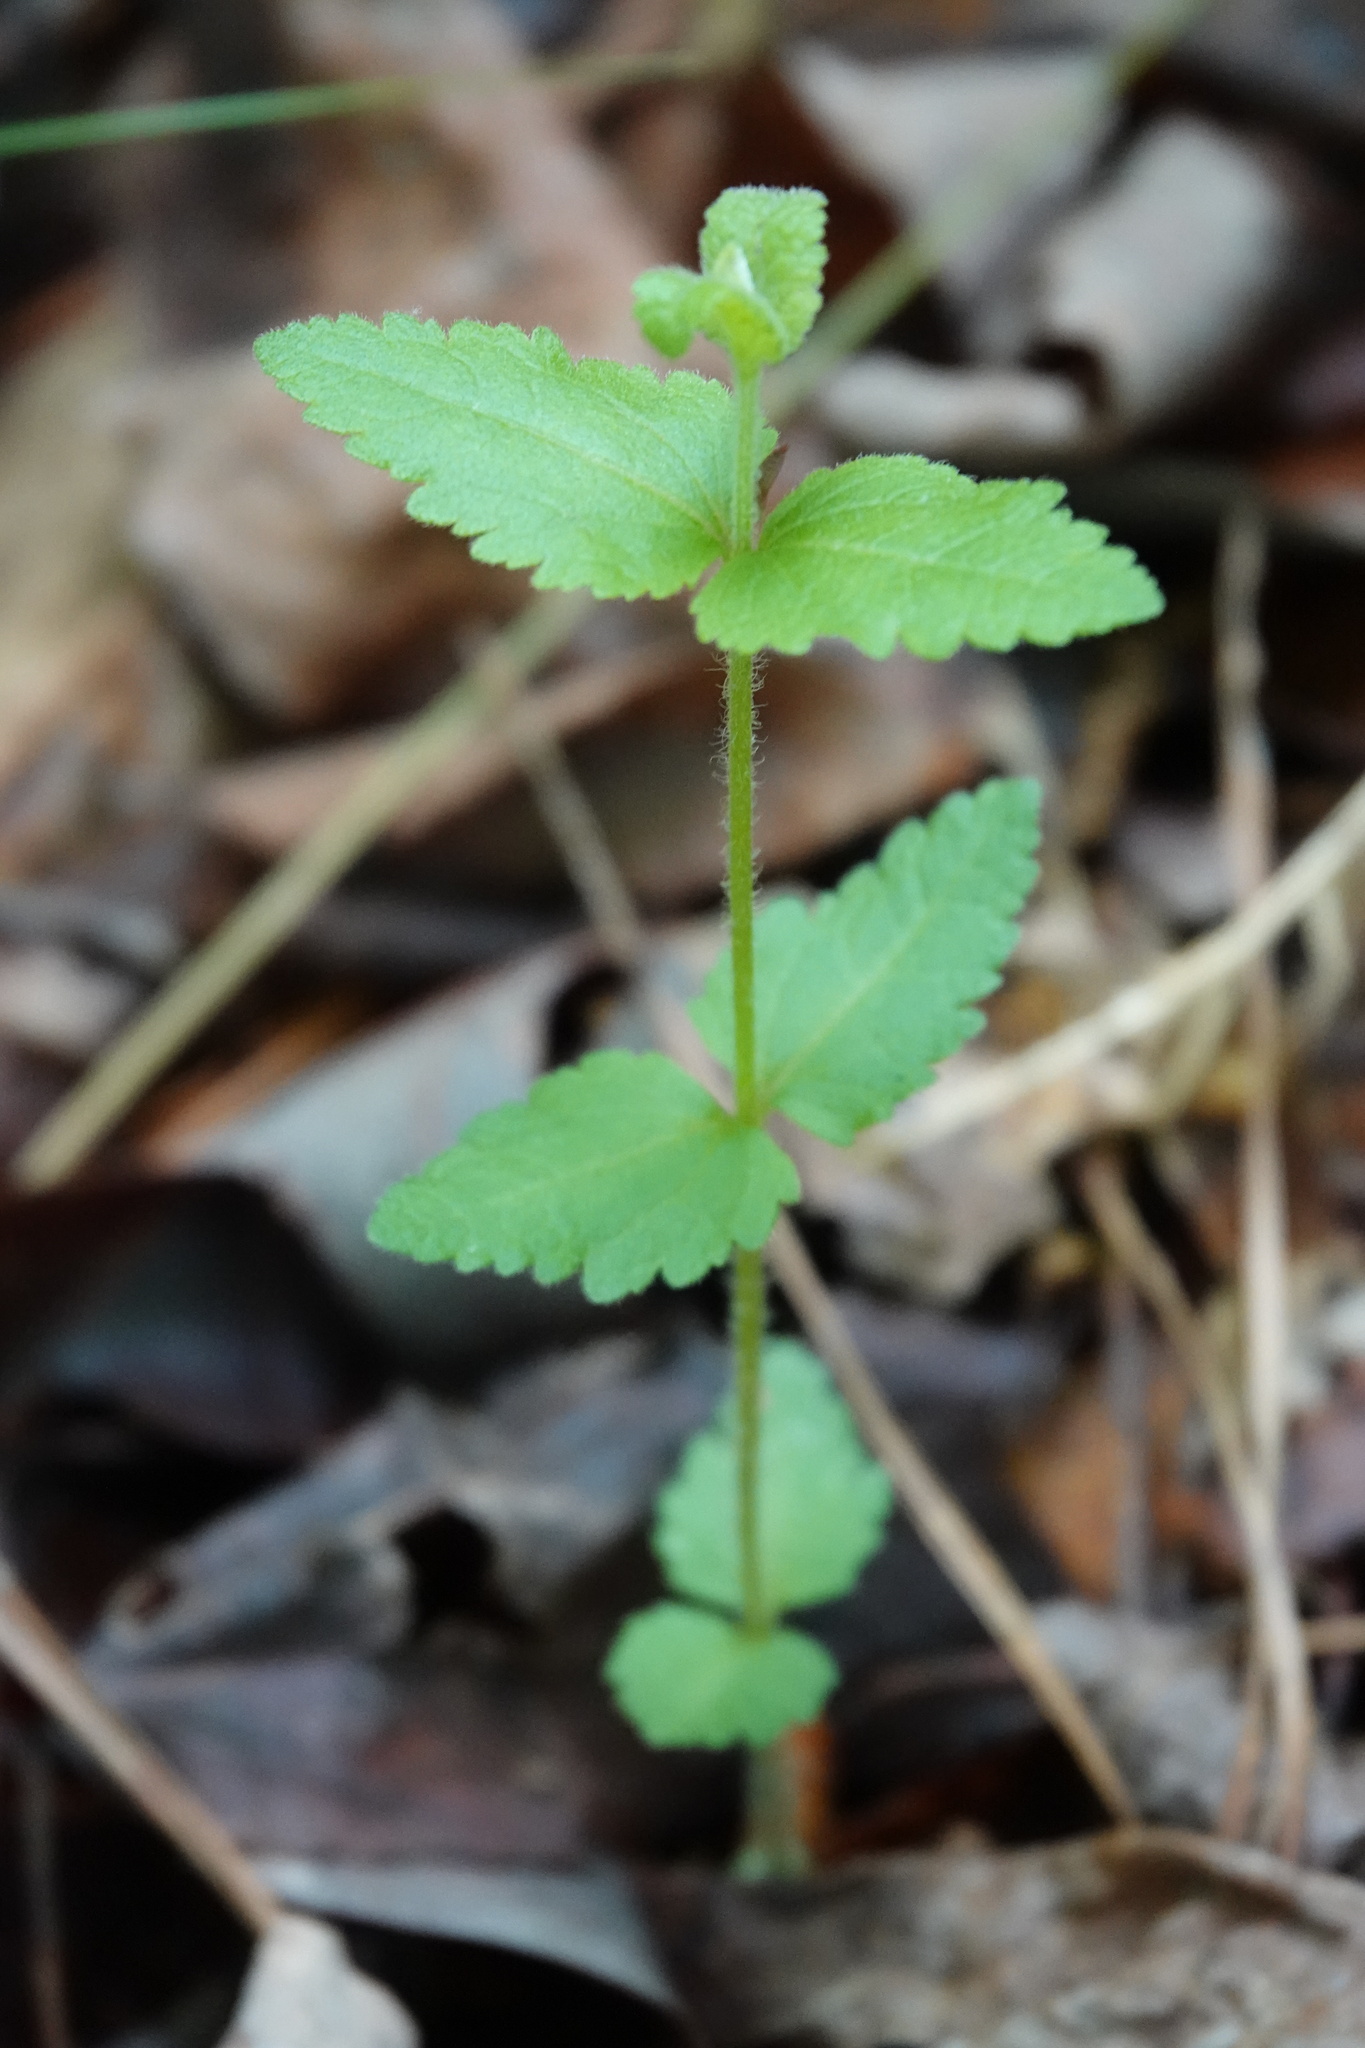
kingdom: Plantae
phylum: Tracheophyta
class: Magnoliopsida
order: Asterales
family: Asteraceae
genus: Eupatorium
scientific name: Eupatorium rotundifolium
